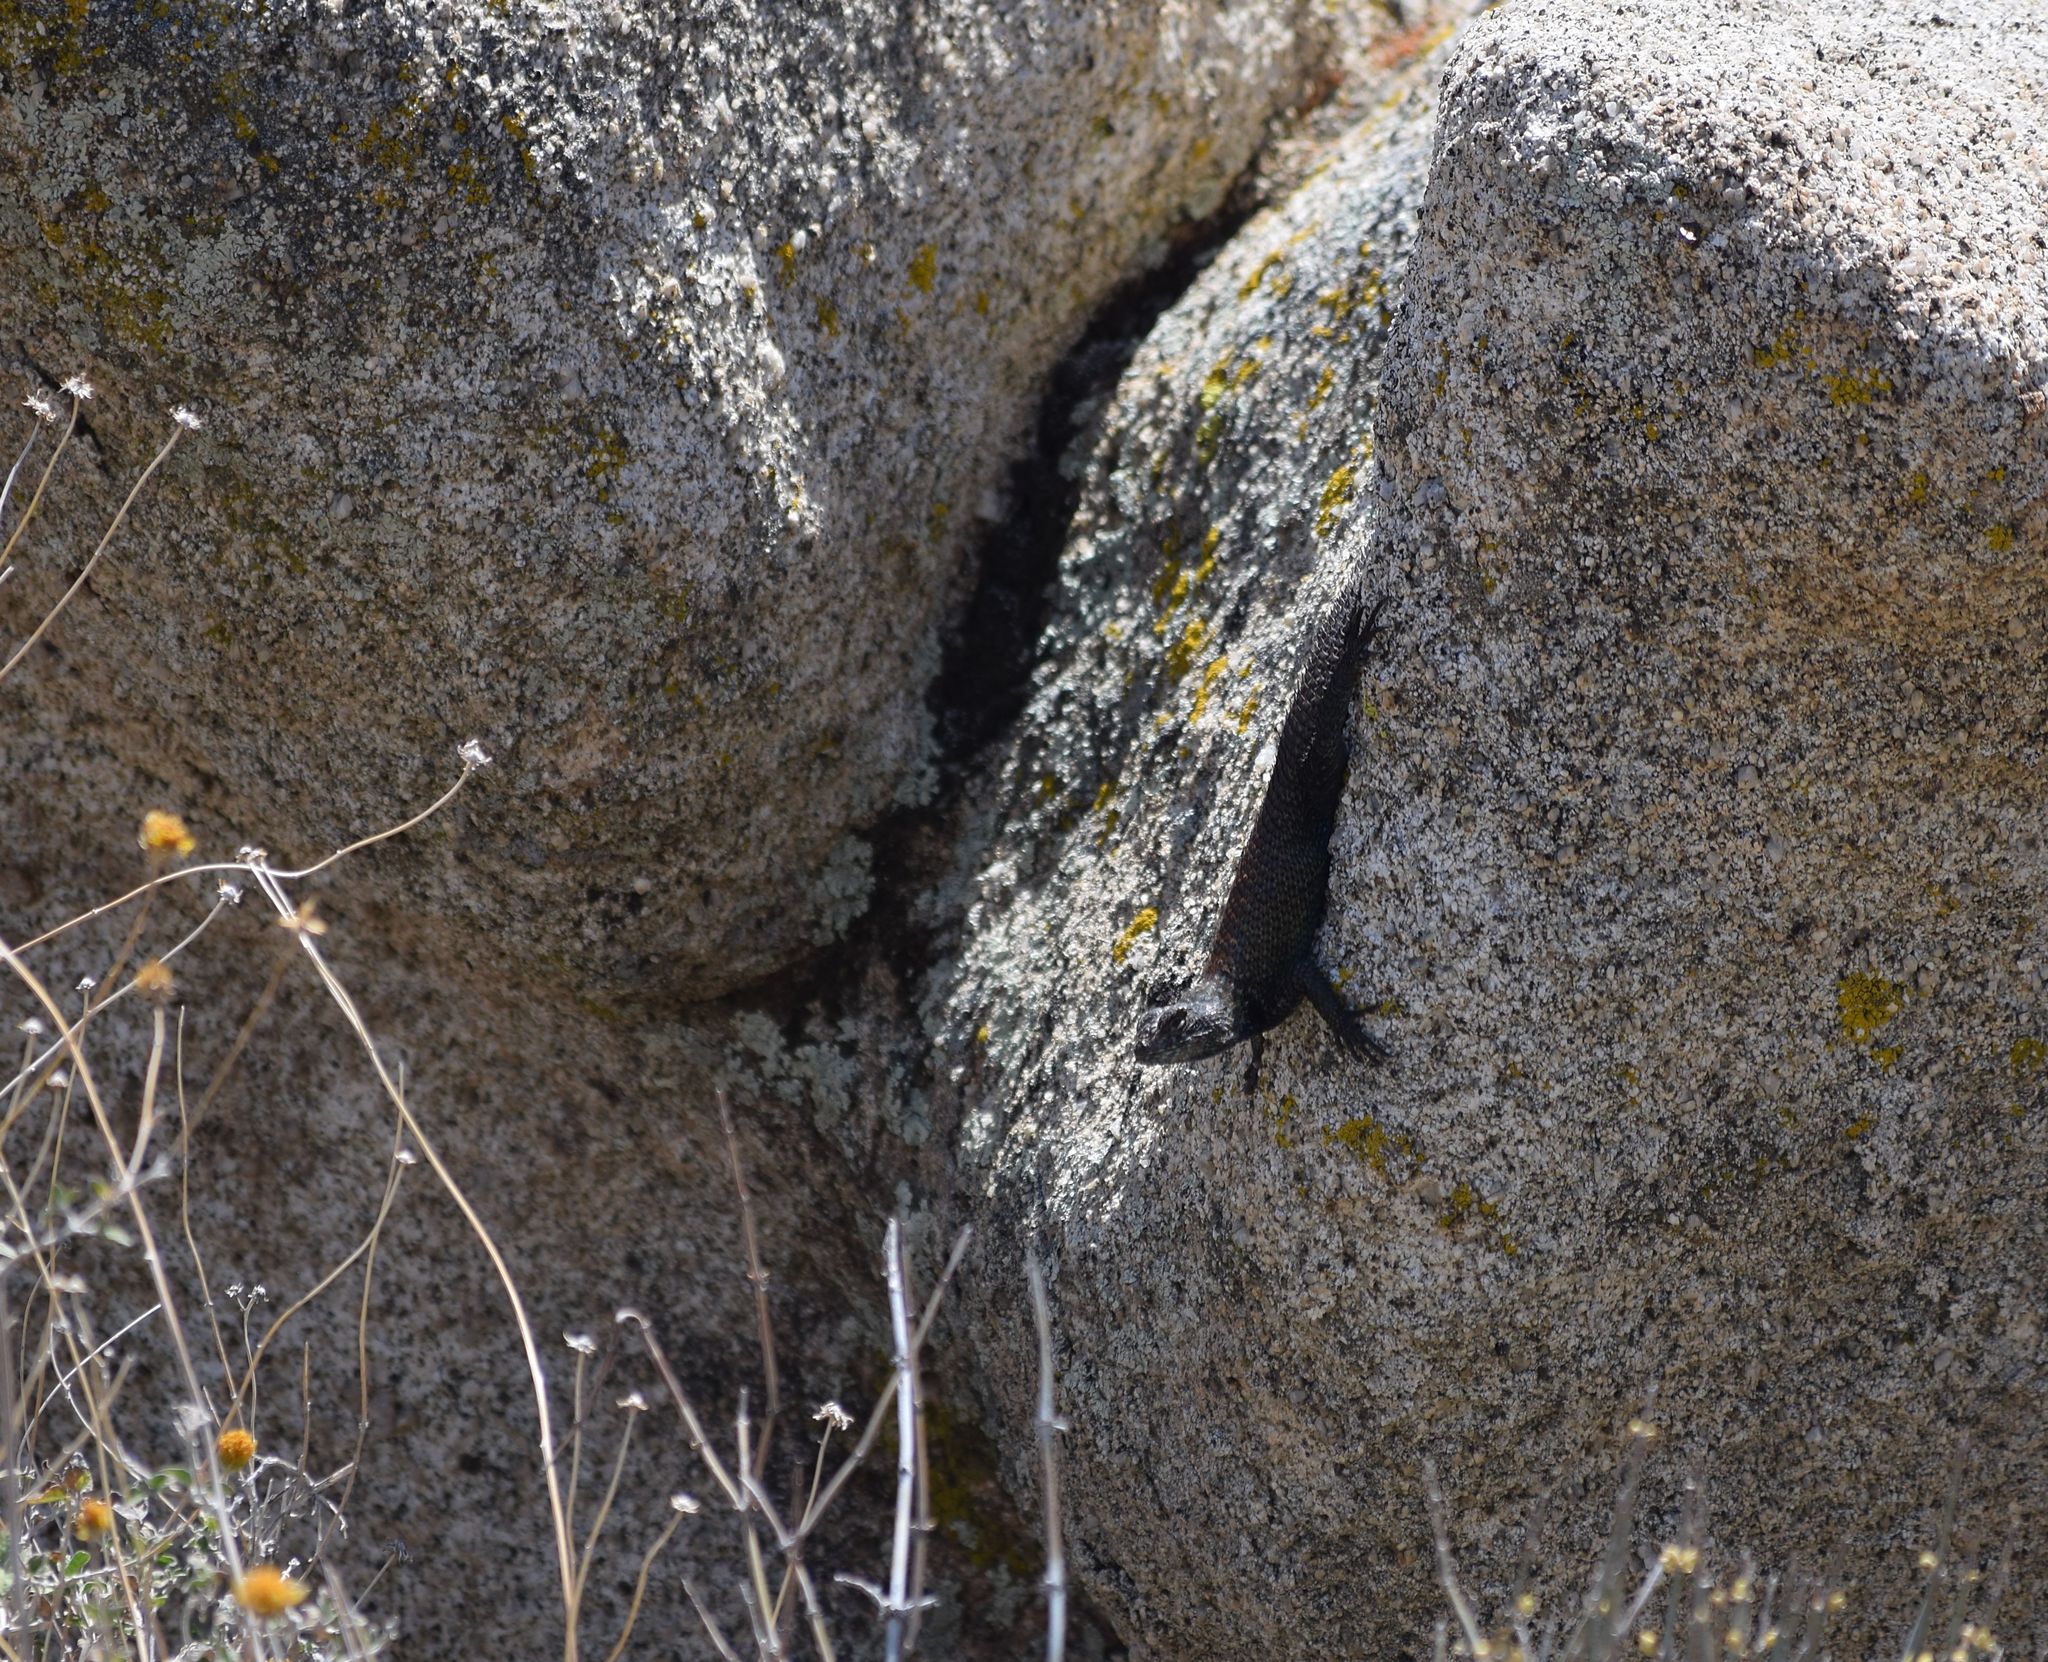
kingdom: Animalia
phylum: Chordata
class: Squamata
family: Phrynosomatidae
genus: Sceloporus
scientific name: Sceloporus orcutti
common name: Granite spiny lizard
